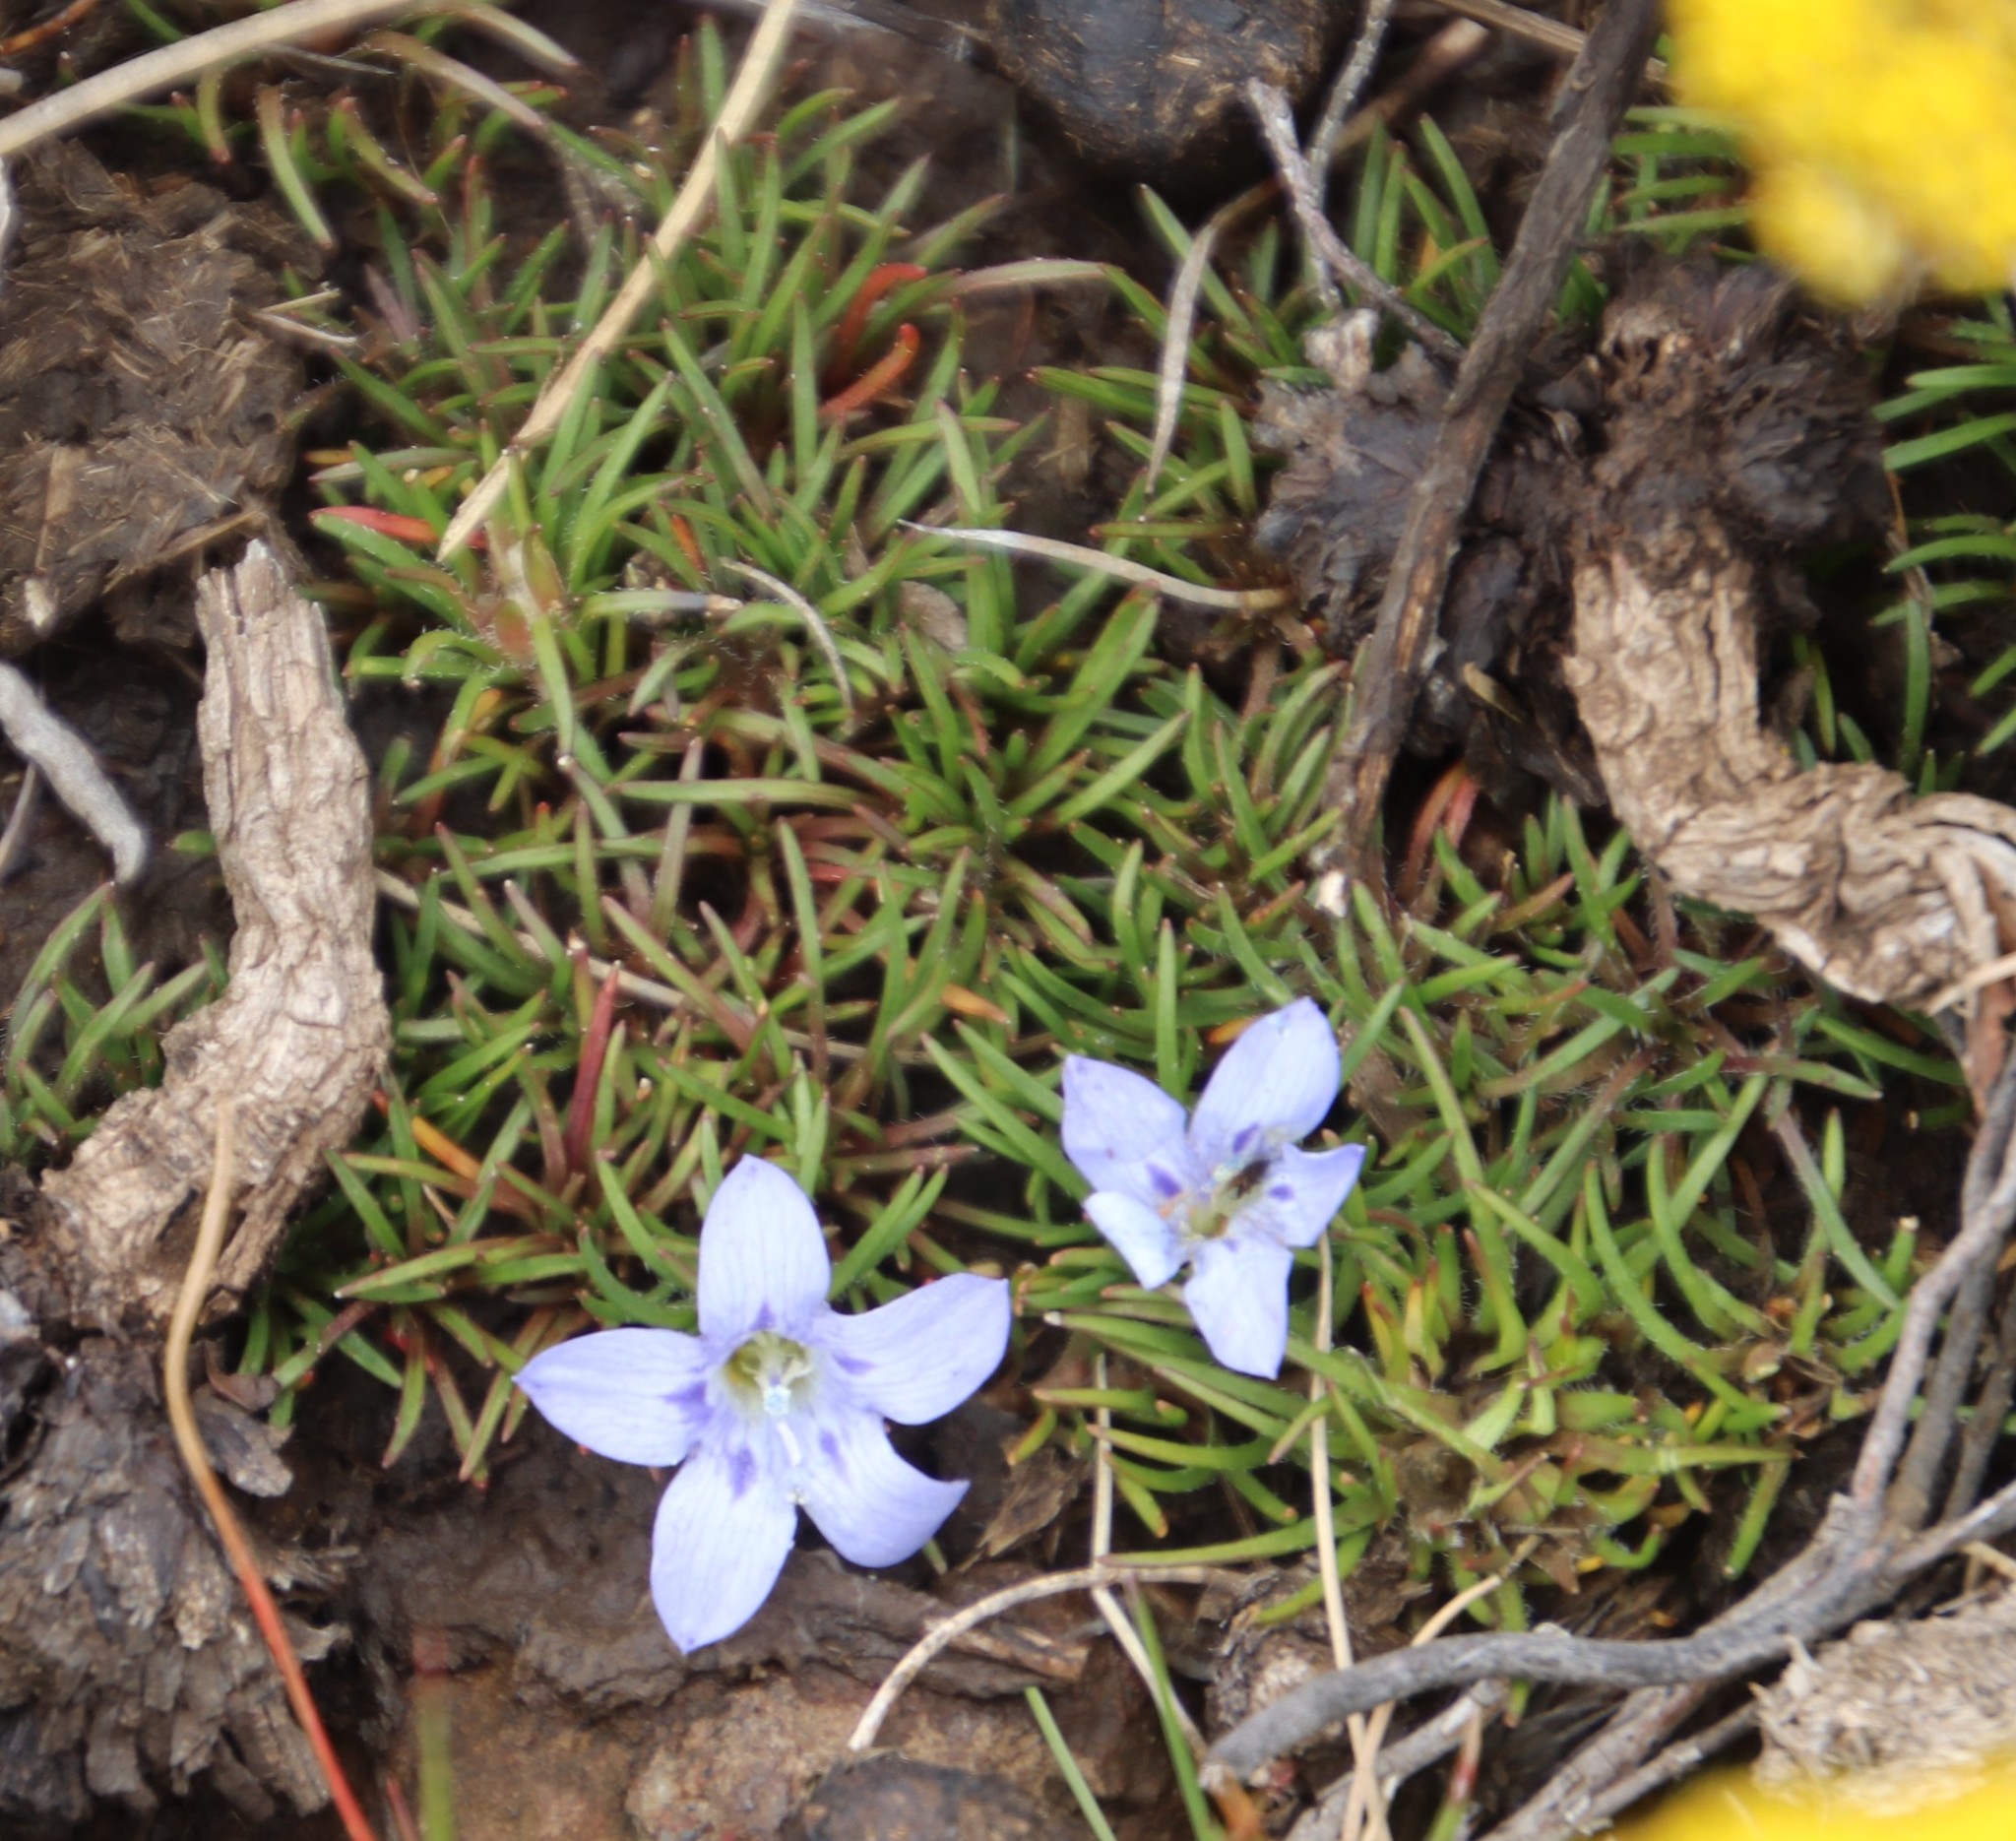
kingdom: Plantae
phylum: Tracheophyta
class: Magnoliopsida
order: Asterales
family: Campanulaceae
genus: Wahlenbergia
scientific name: Wahlenbergia polytrichifolia
